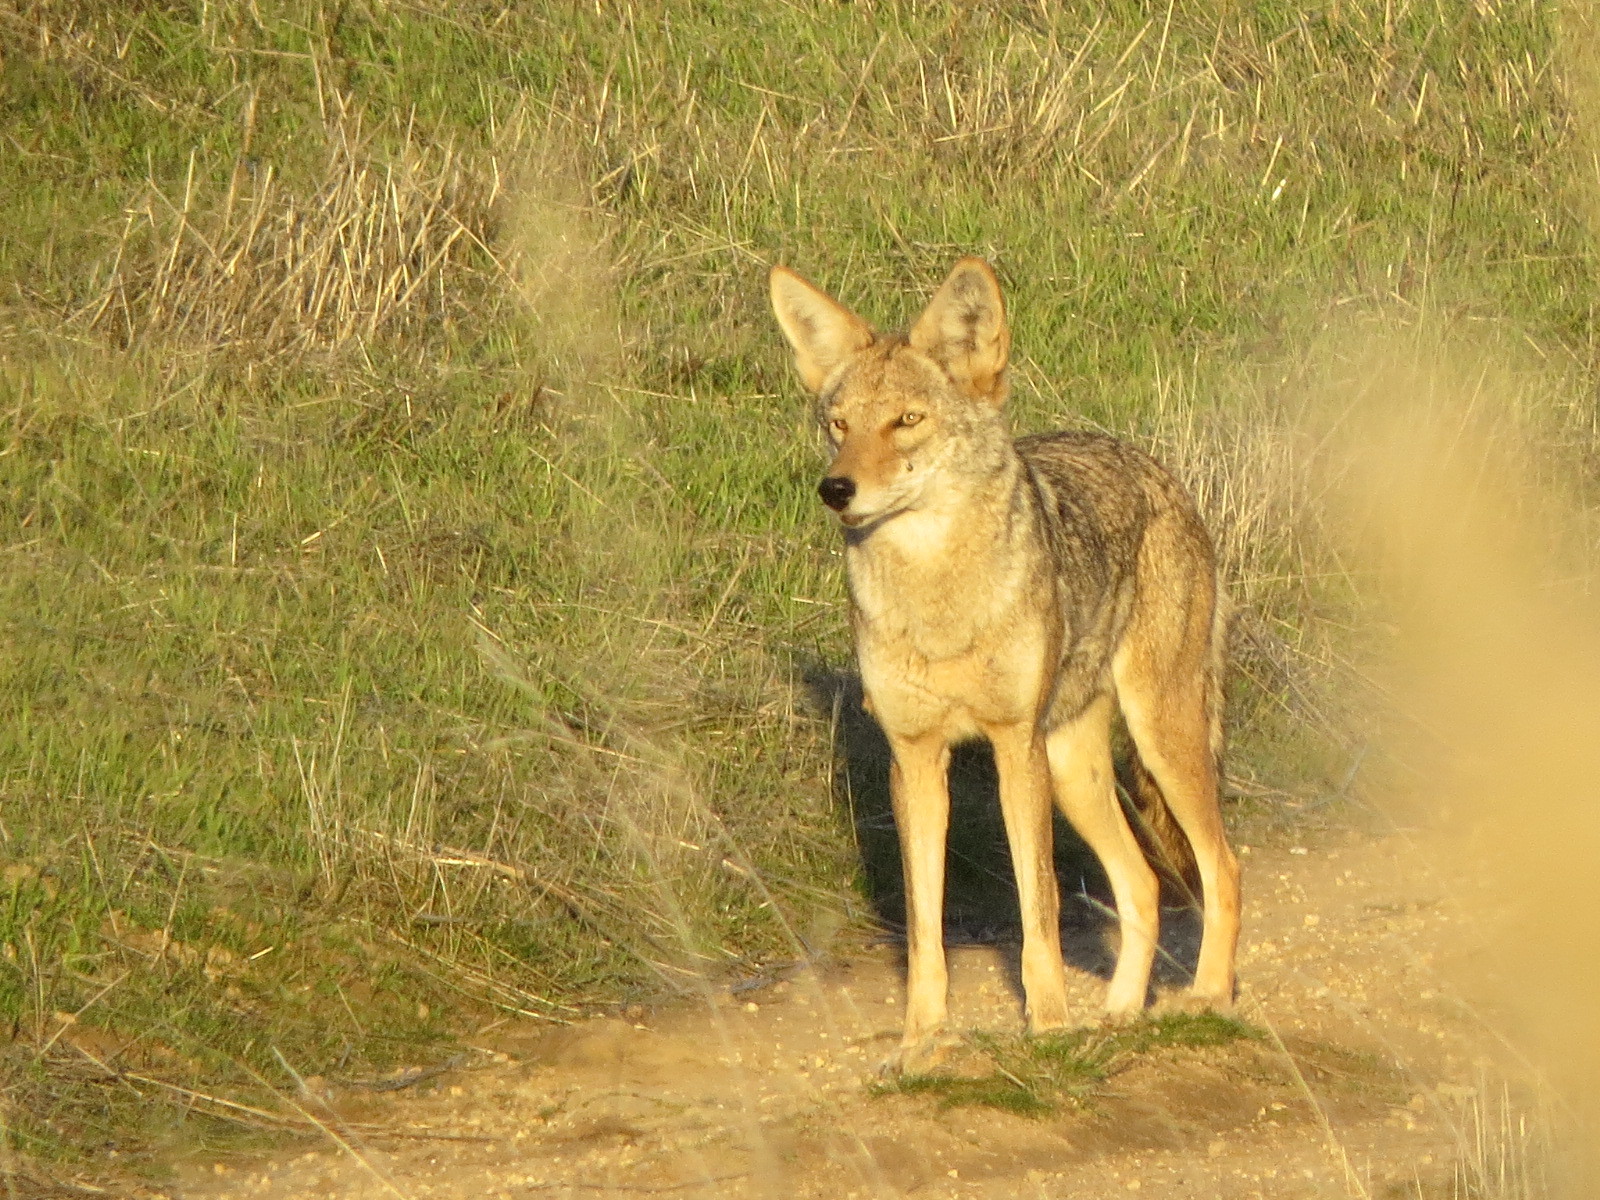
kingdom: Animalia
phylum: Chordata
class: Mammalia
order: Carnivora
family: Canidae
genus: Canis
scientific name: Canis latrans
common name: Coyote
